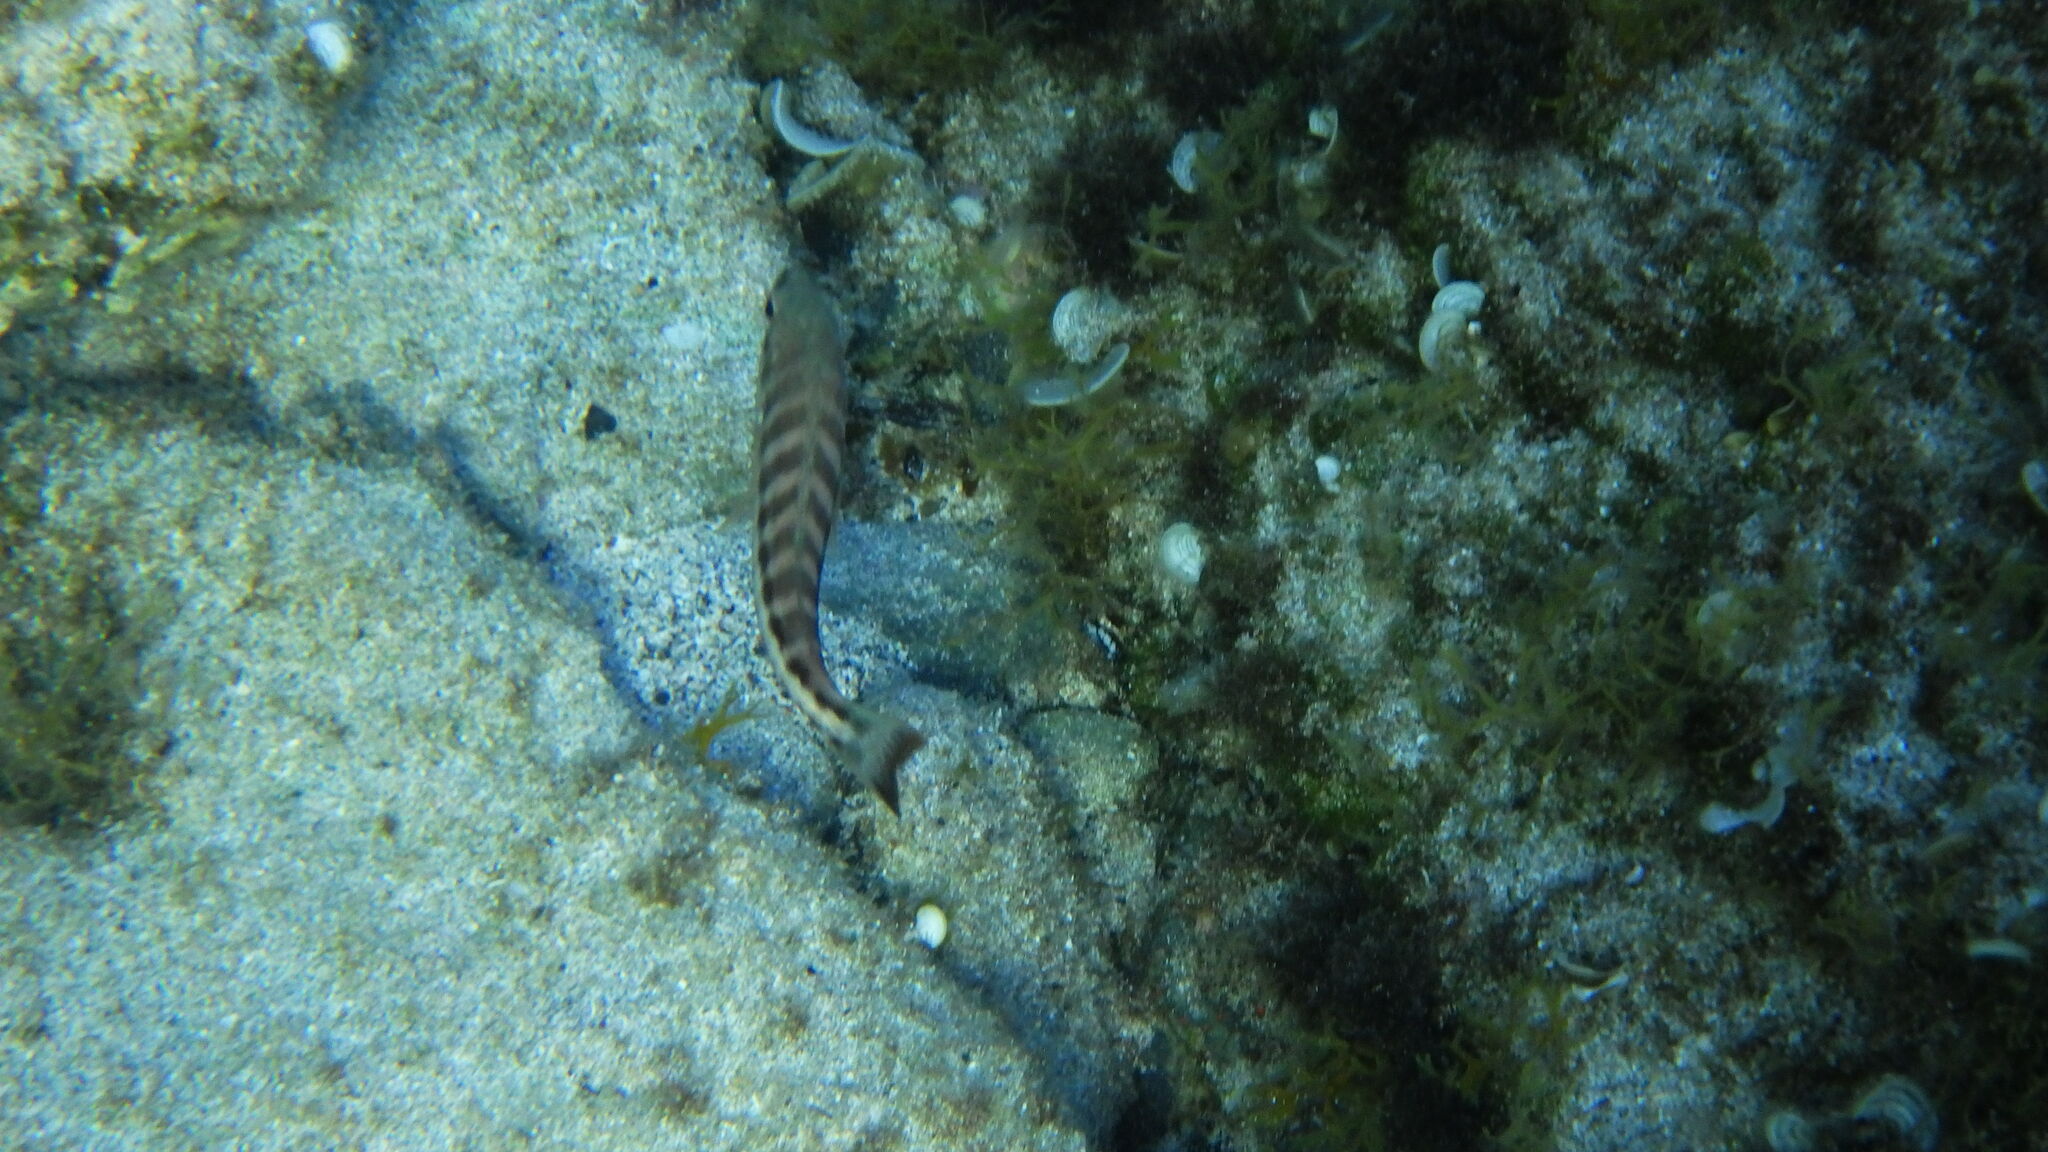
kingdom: Animalia
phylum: Chordata
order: Perciformes
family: Serranidae
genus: Serranus
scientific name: Serranus cabrilla
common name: Comber
